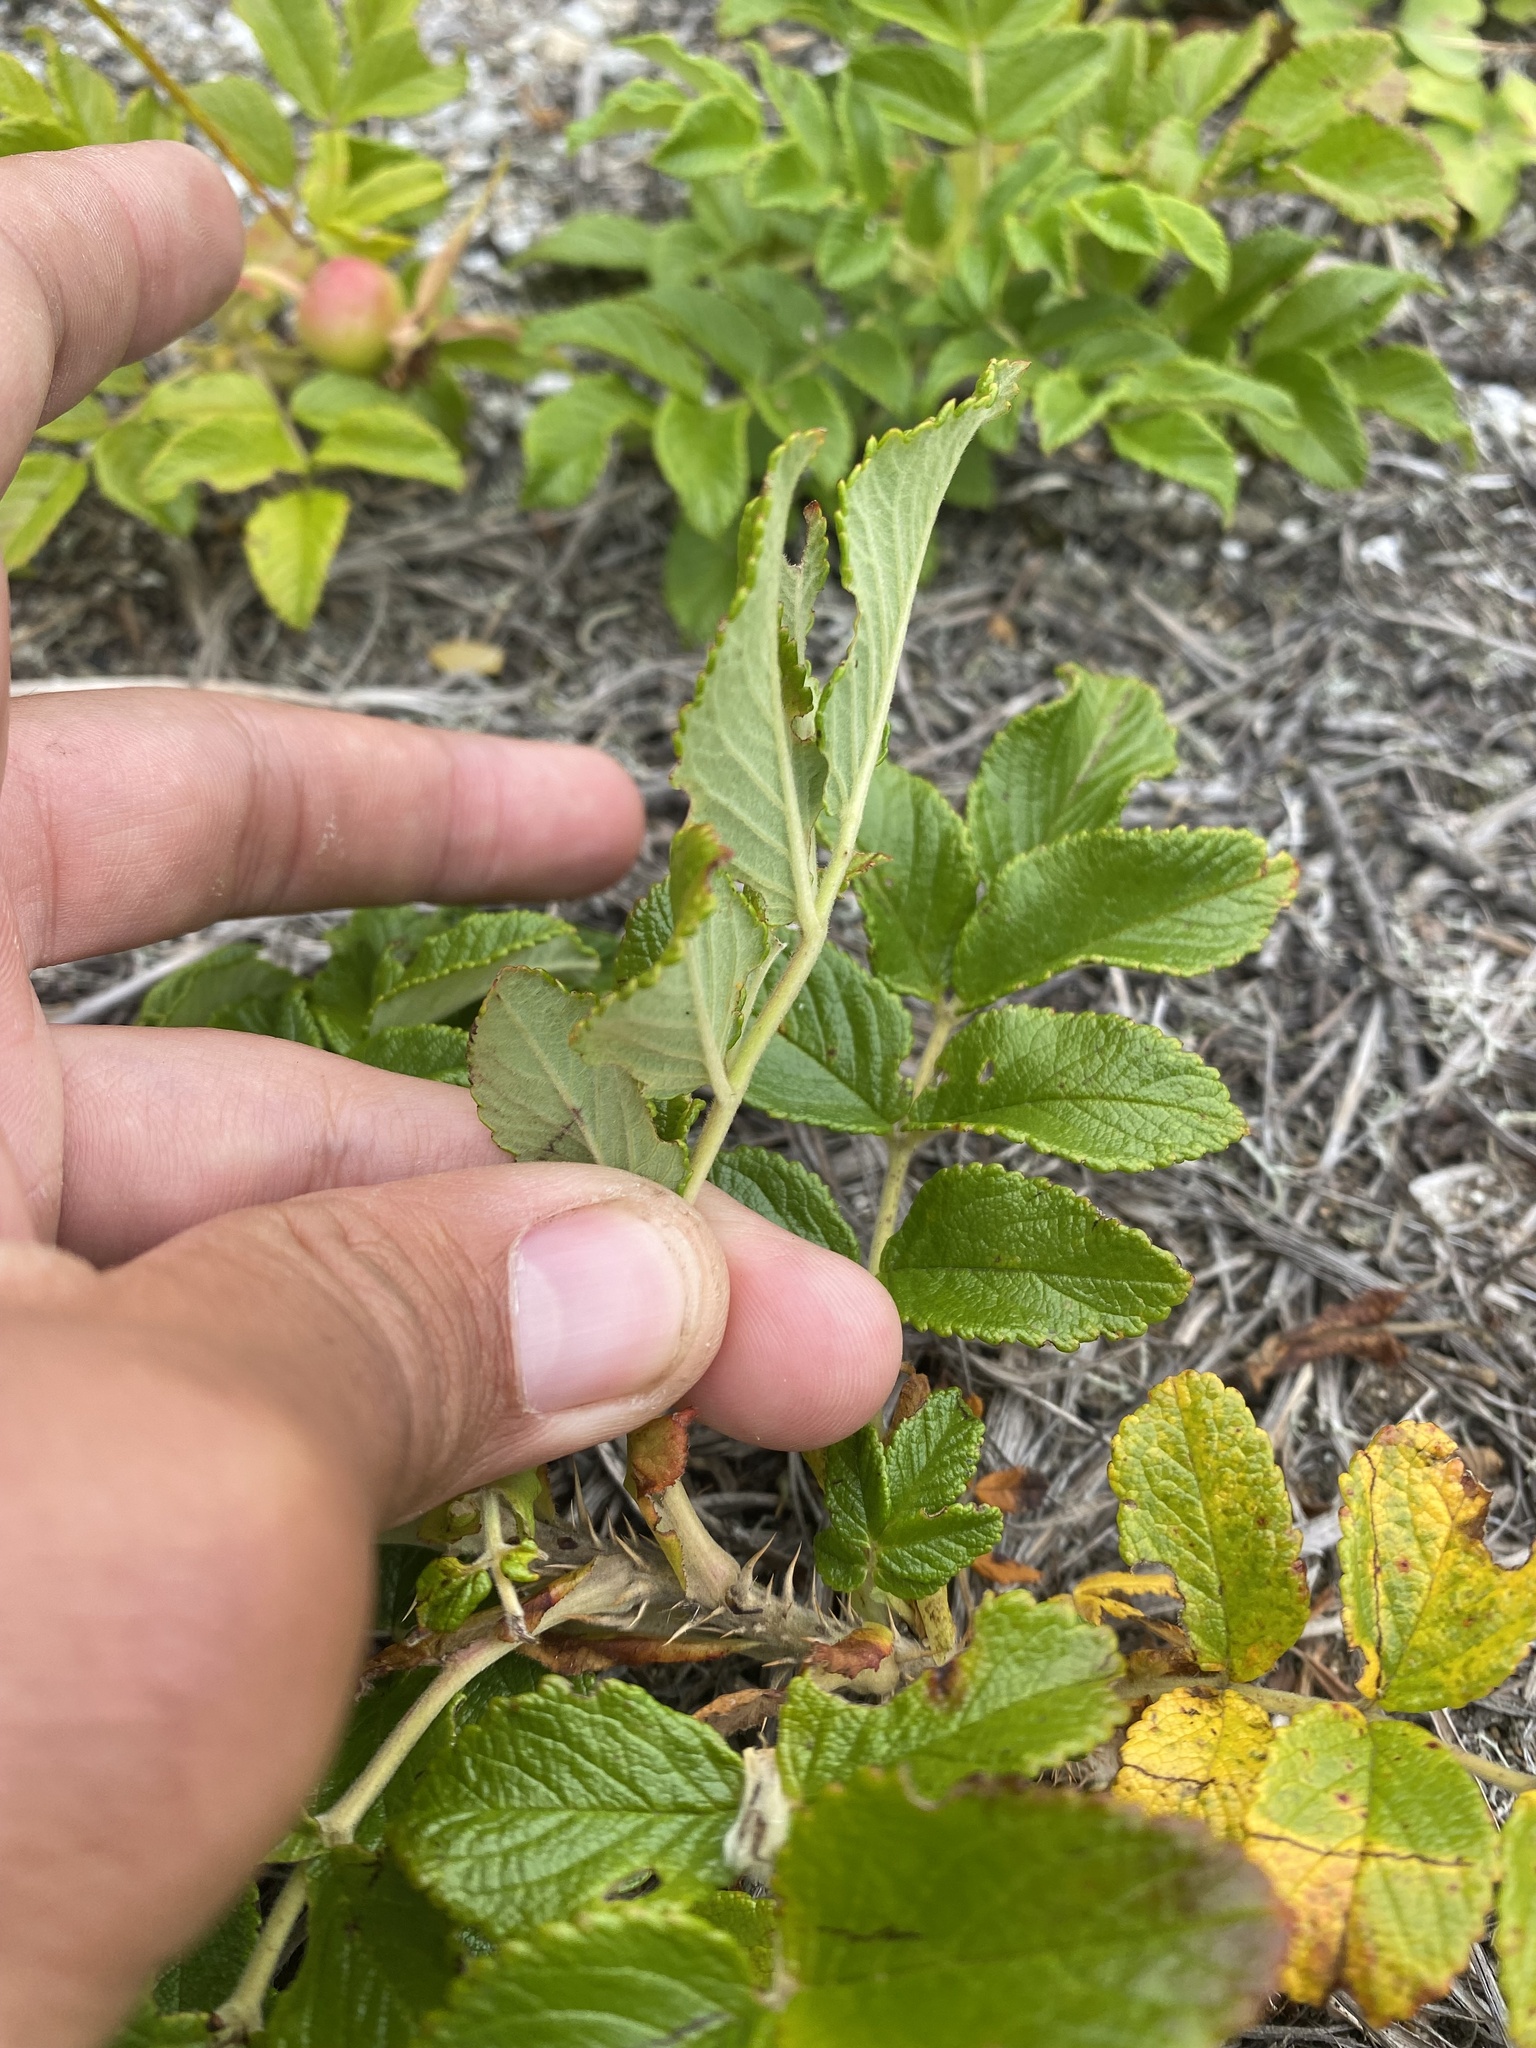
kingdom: Plantae
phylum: Tracheophyta
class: Magnoliopsida
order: Rosales
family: Rosaceae
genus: Rosa
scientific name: Rosa rugosa
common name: Japanese rose
